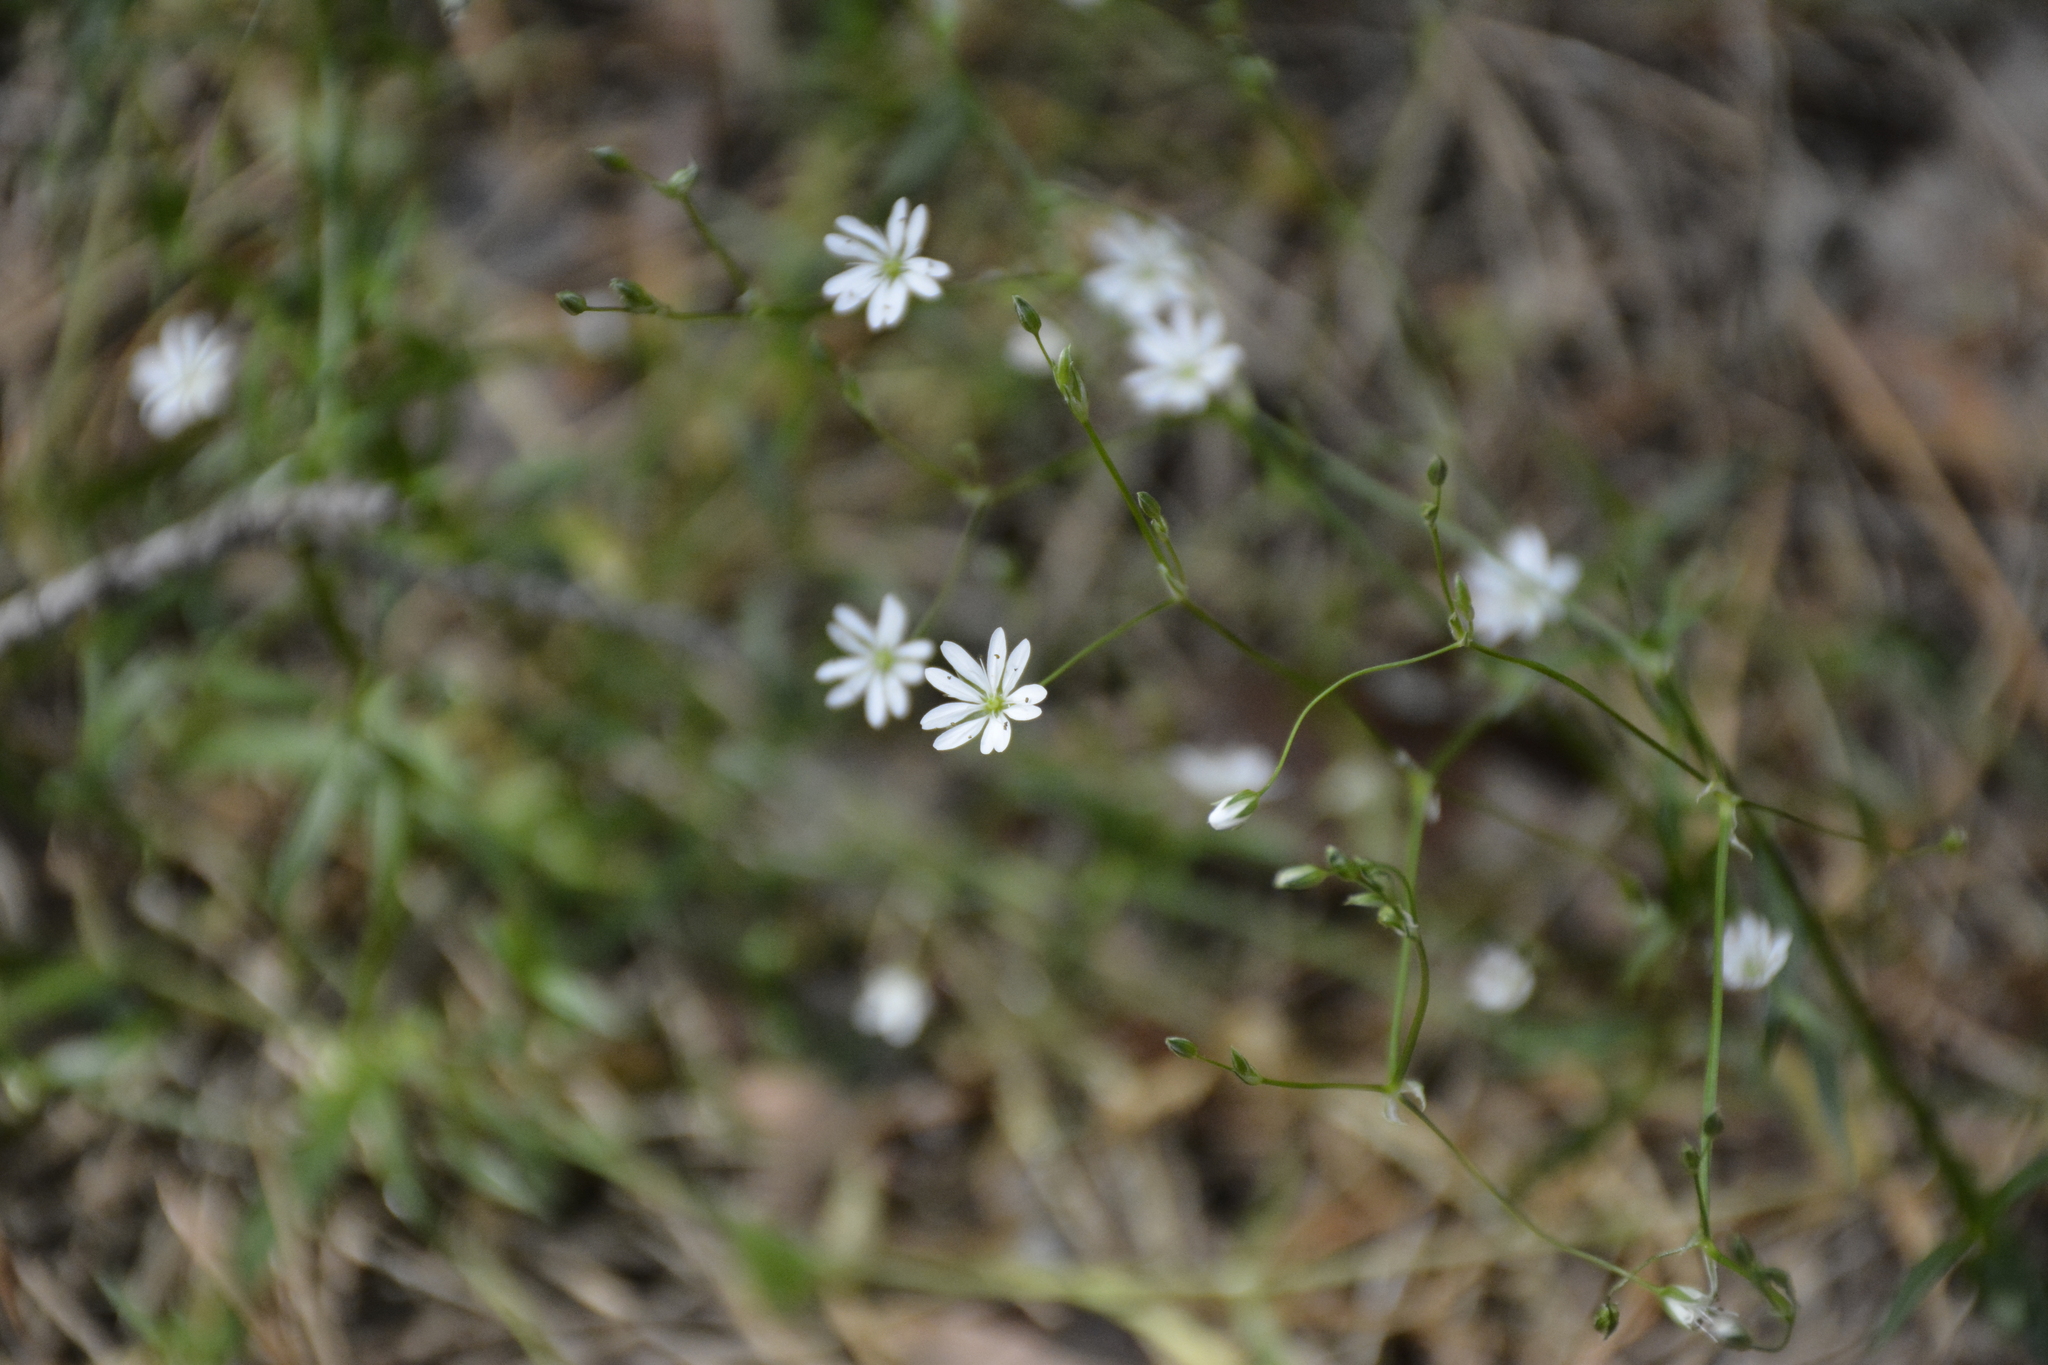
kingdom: Plantae
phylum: Tracheophyta
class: Magnoliopsida
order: Caryophyllales
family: Caryophyllaceae
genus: Stellaria
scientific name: Stellaria graminea
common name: Grass-like starwort
